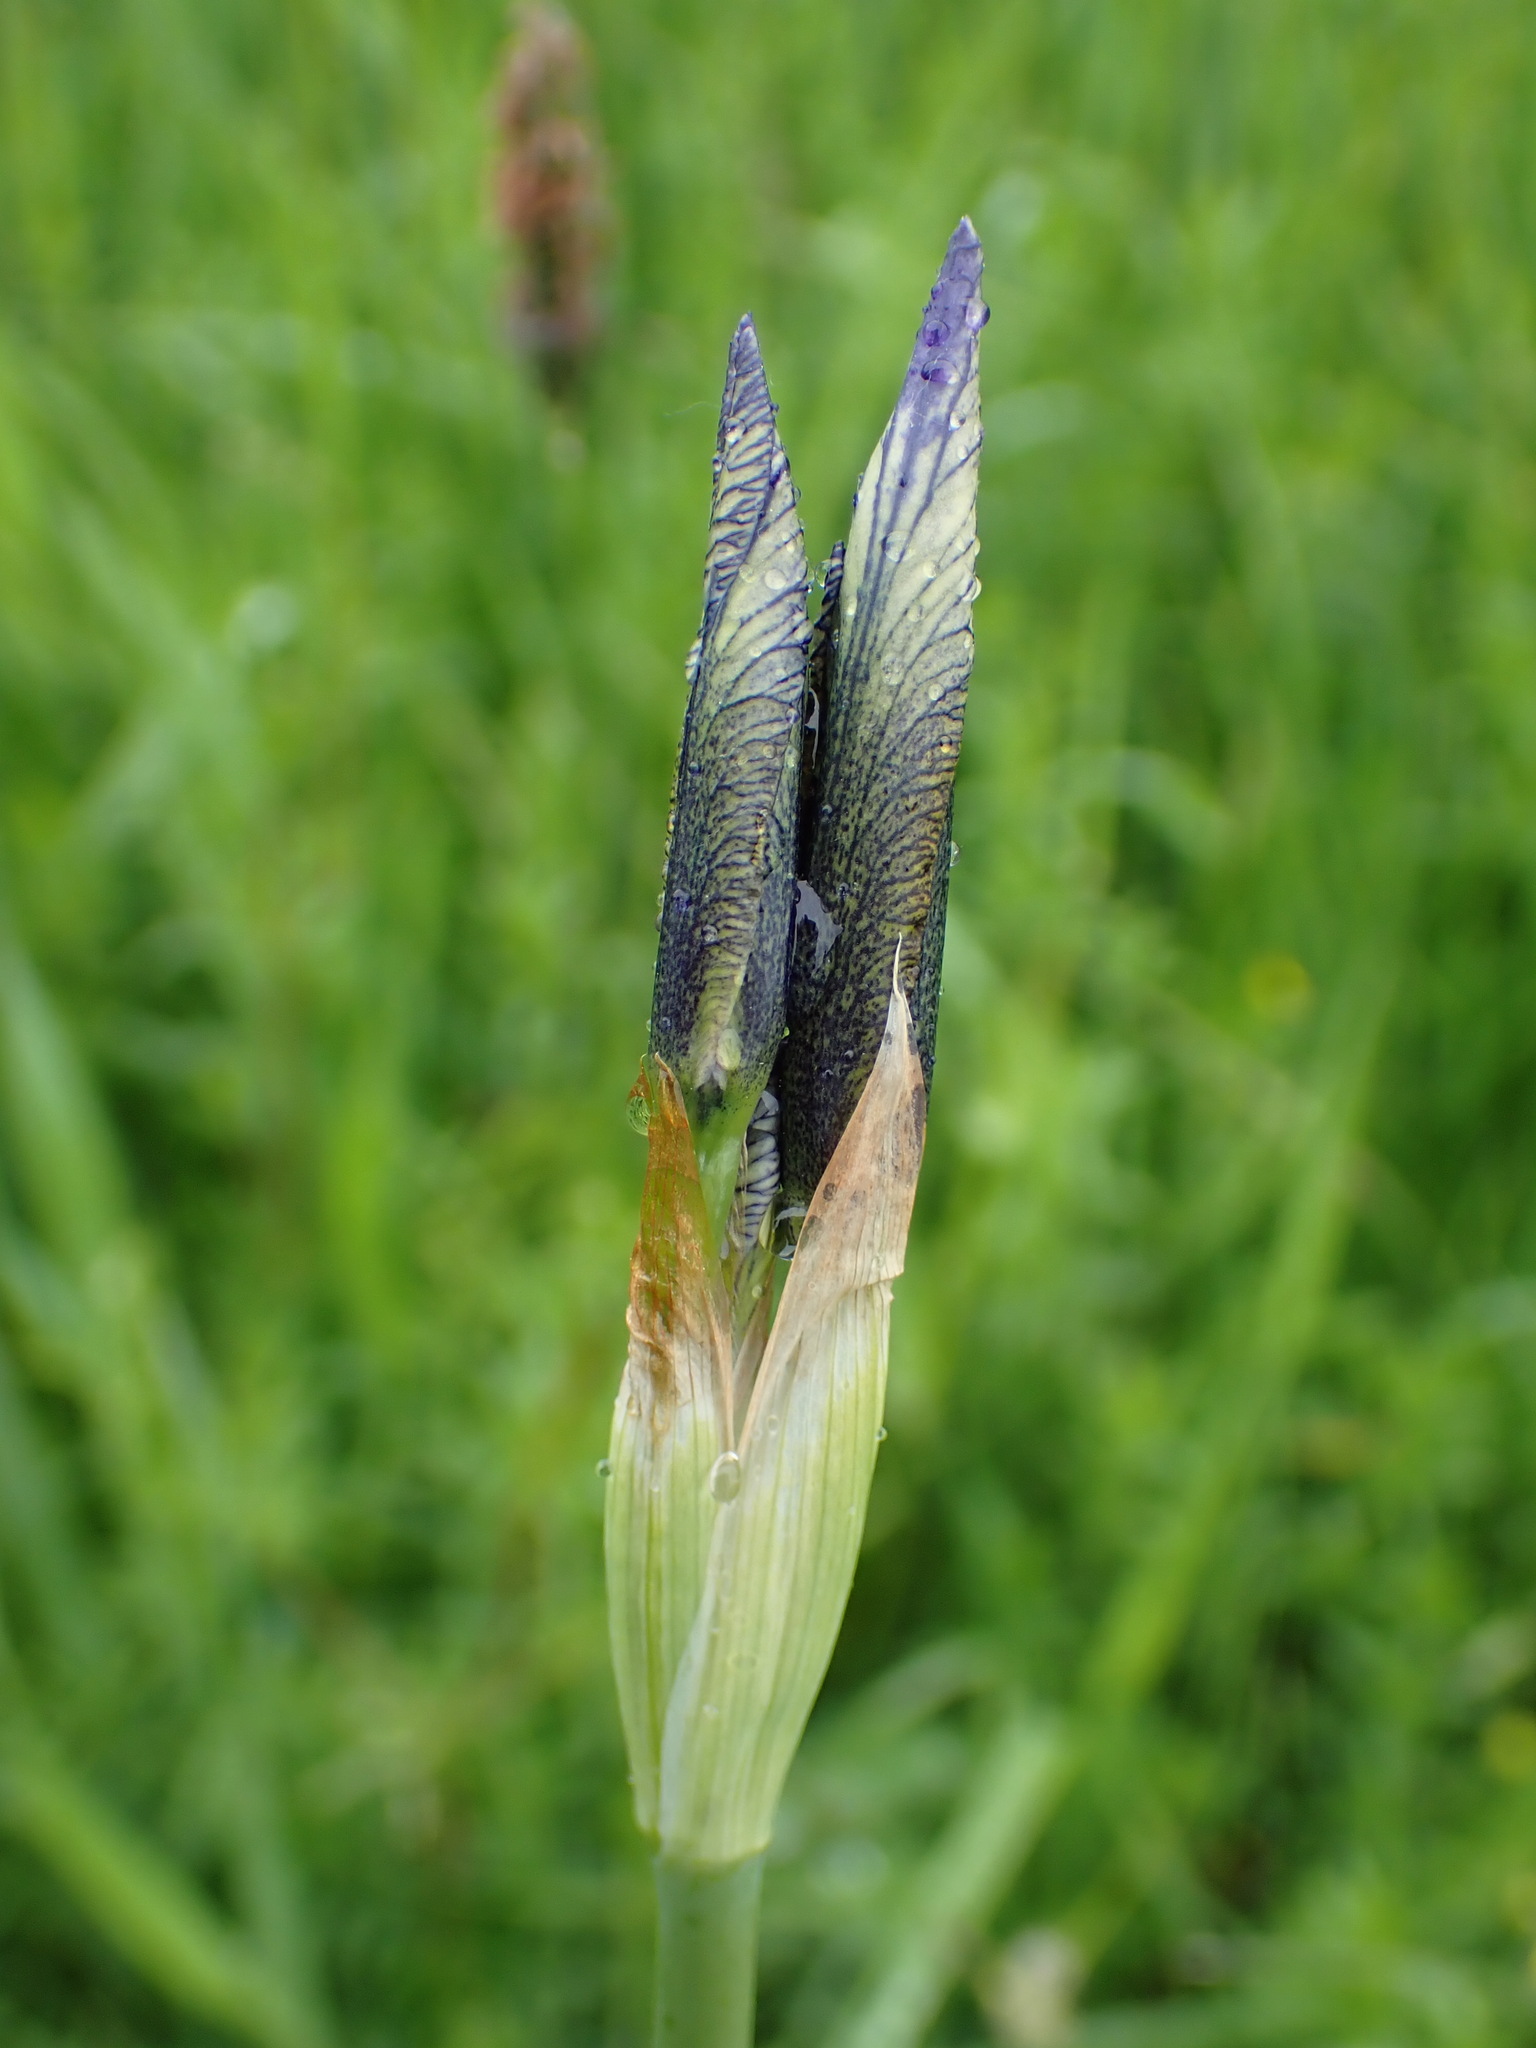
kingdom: Plantae
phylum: Tracheophyta
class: Liliopsida
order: Asparagales
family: Iridaceae
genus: Iris
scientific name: Iris sibirica
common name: Siberian iris
